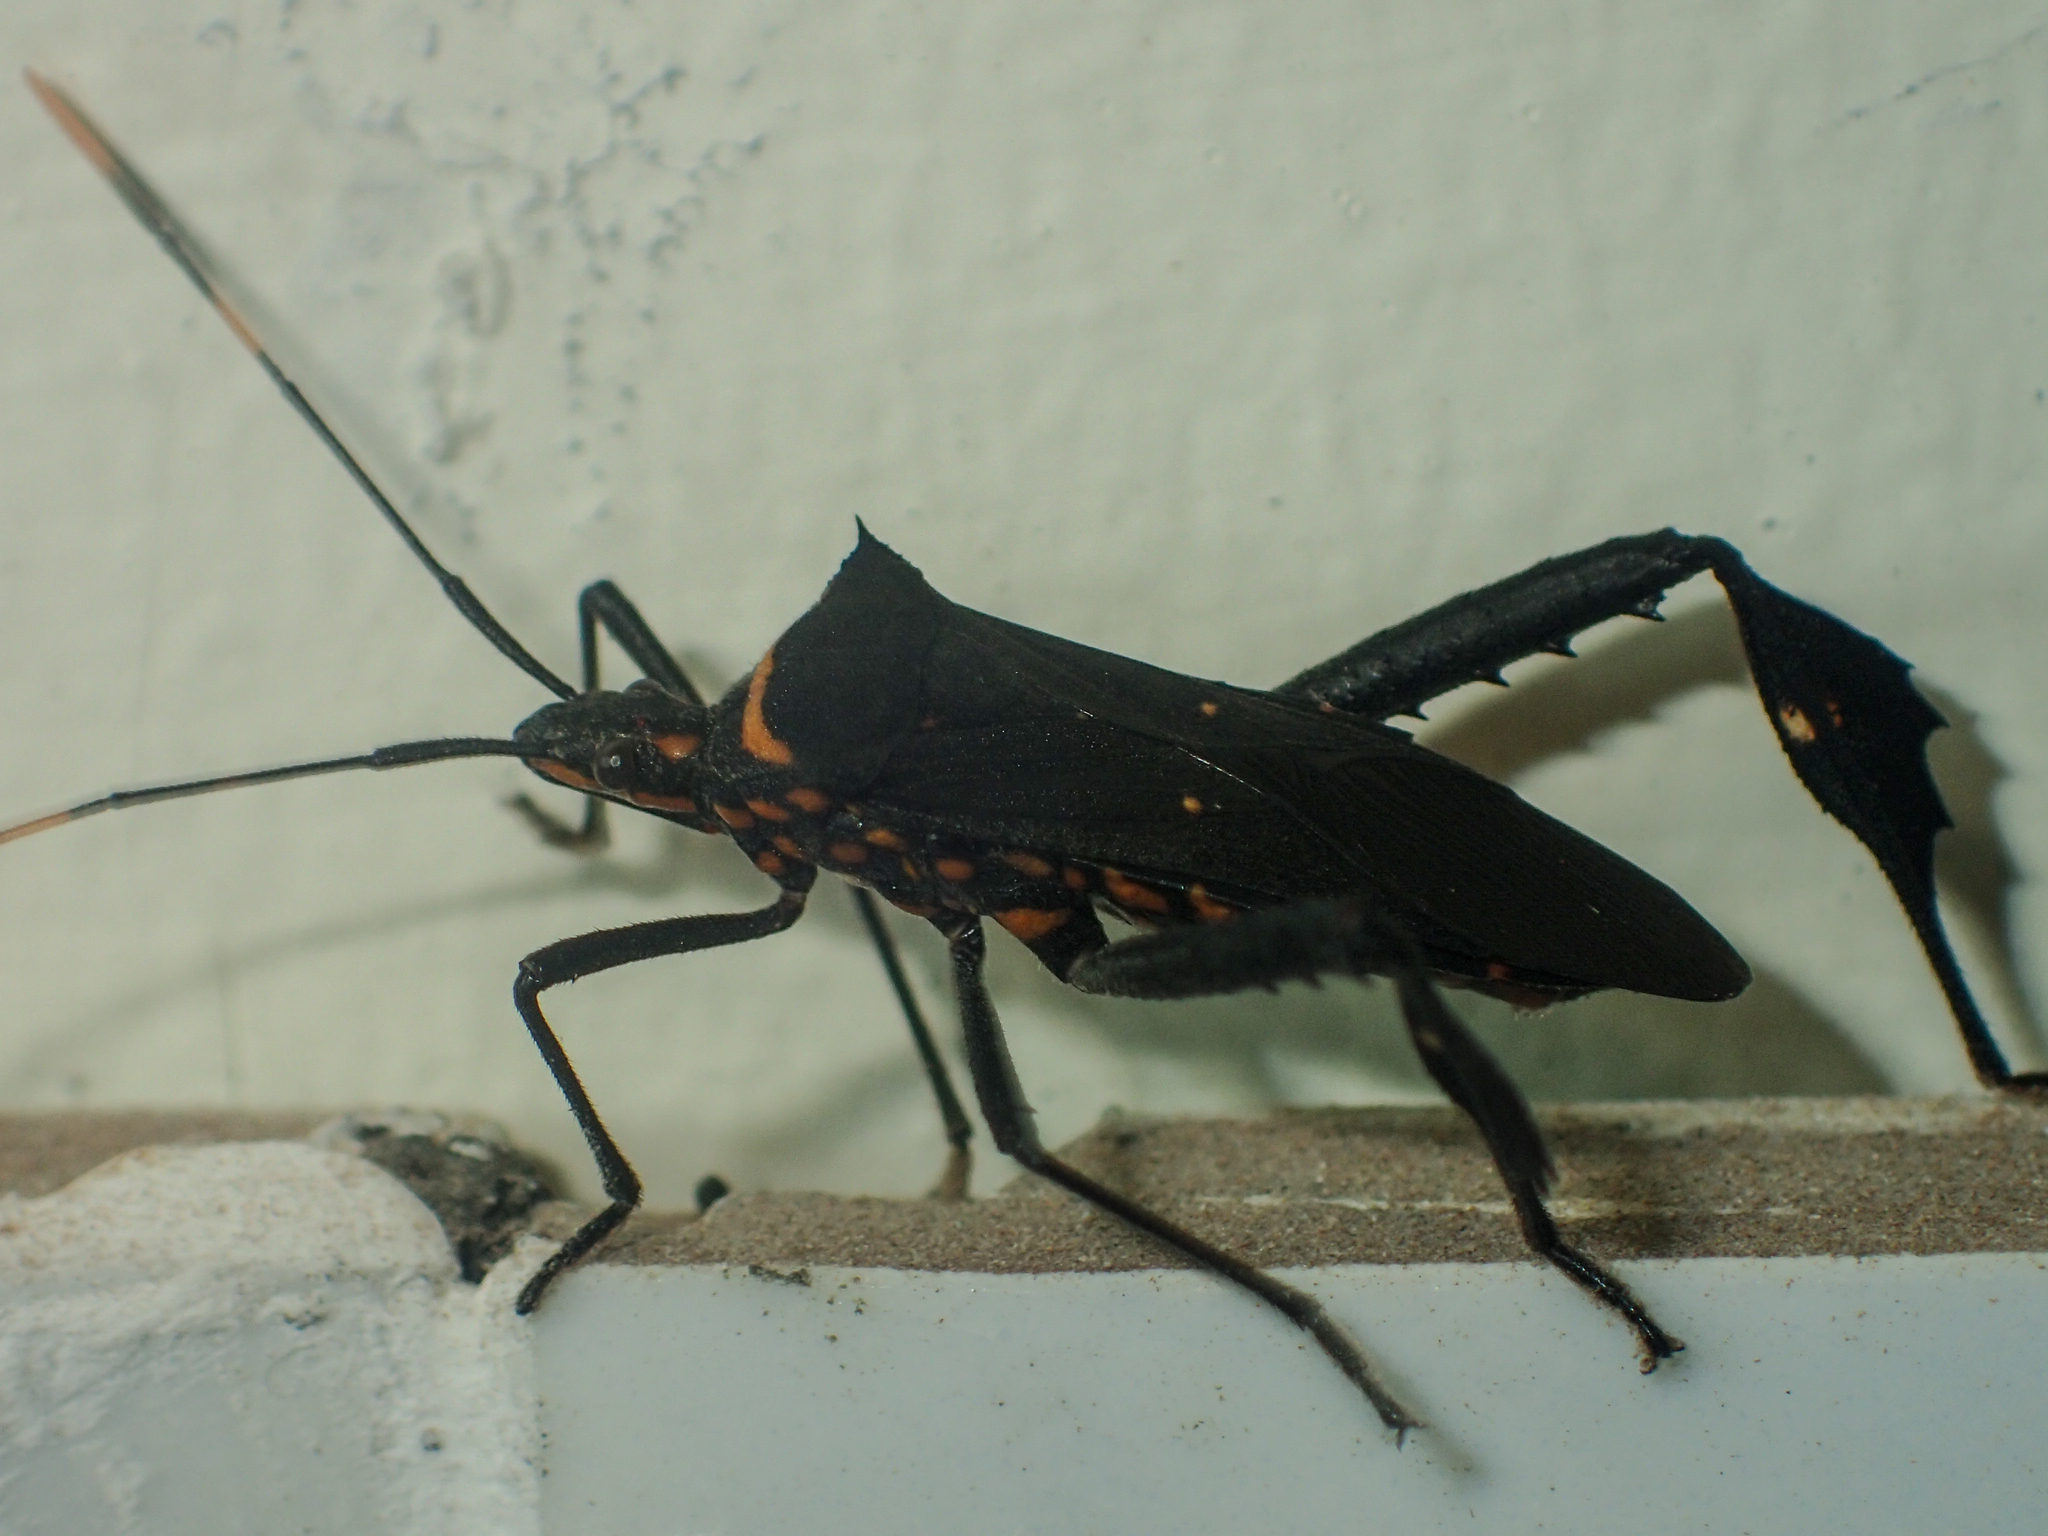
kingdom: Animalia
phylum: Arthropoda
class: Insecta
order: Hemiptera
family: Coreidae
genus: Leptoglossus
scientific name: Leptoglossus gonagra
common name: Citron bug
